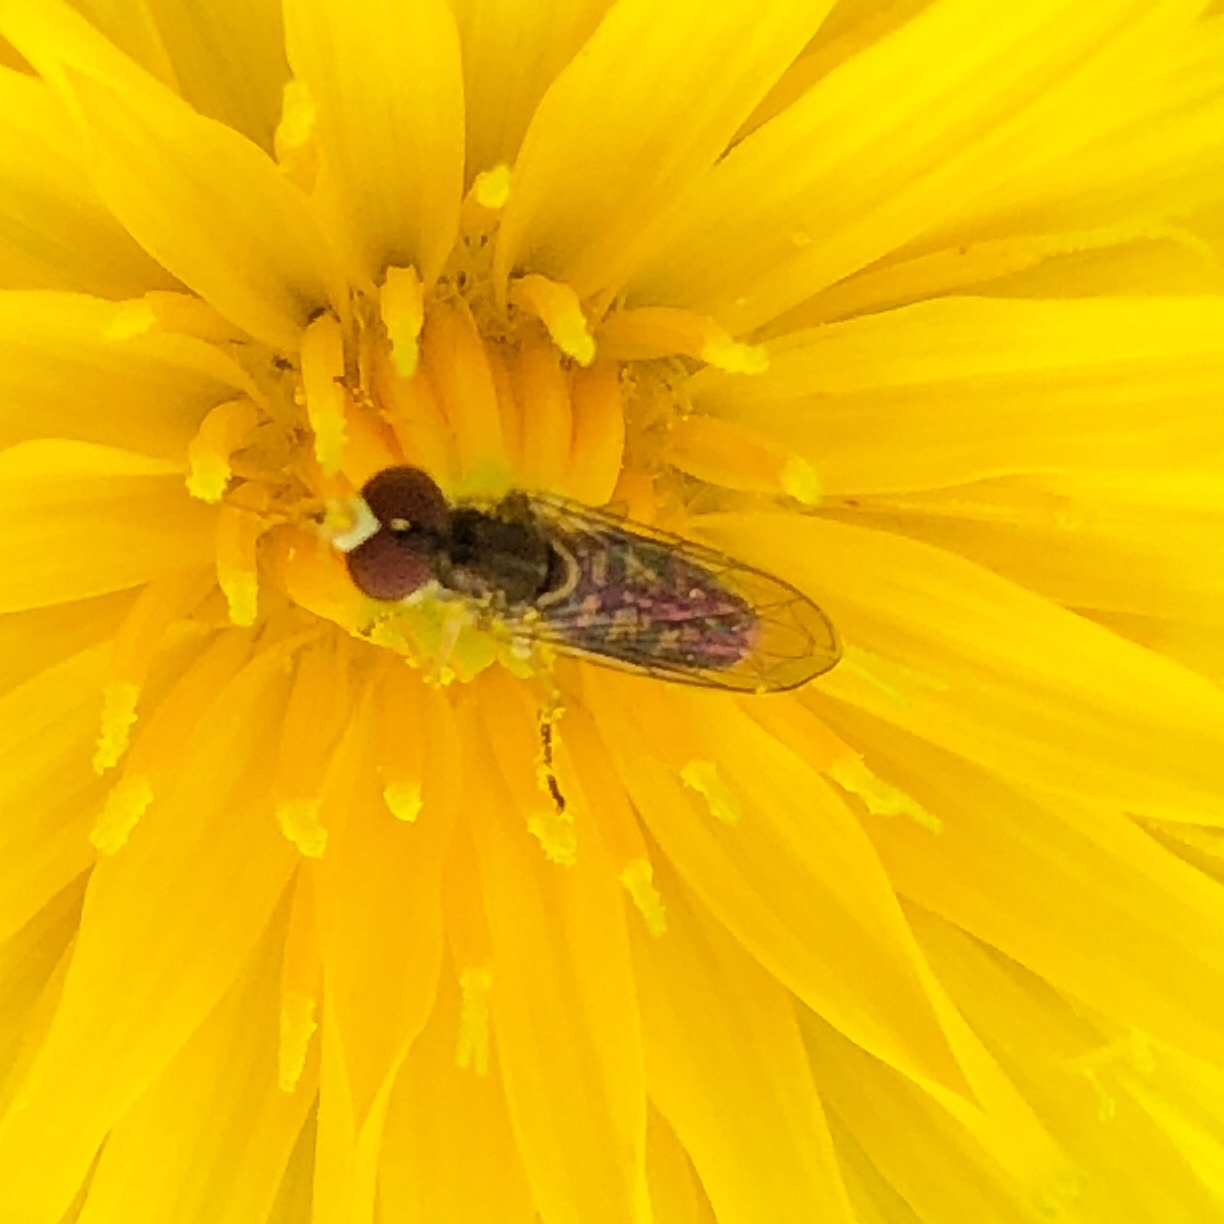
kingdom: Animalia
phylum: Arthropoda
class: Insecta
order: Diptera
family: Syrphidae
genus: Toxomerus
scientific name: Toxomerus marginatus
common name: Syrphid fly
